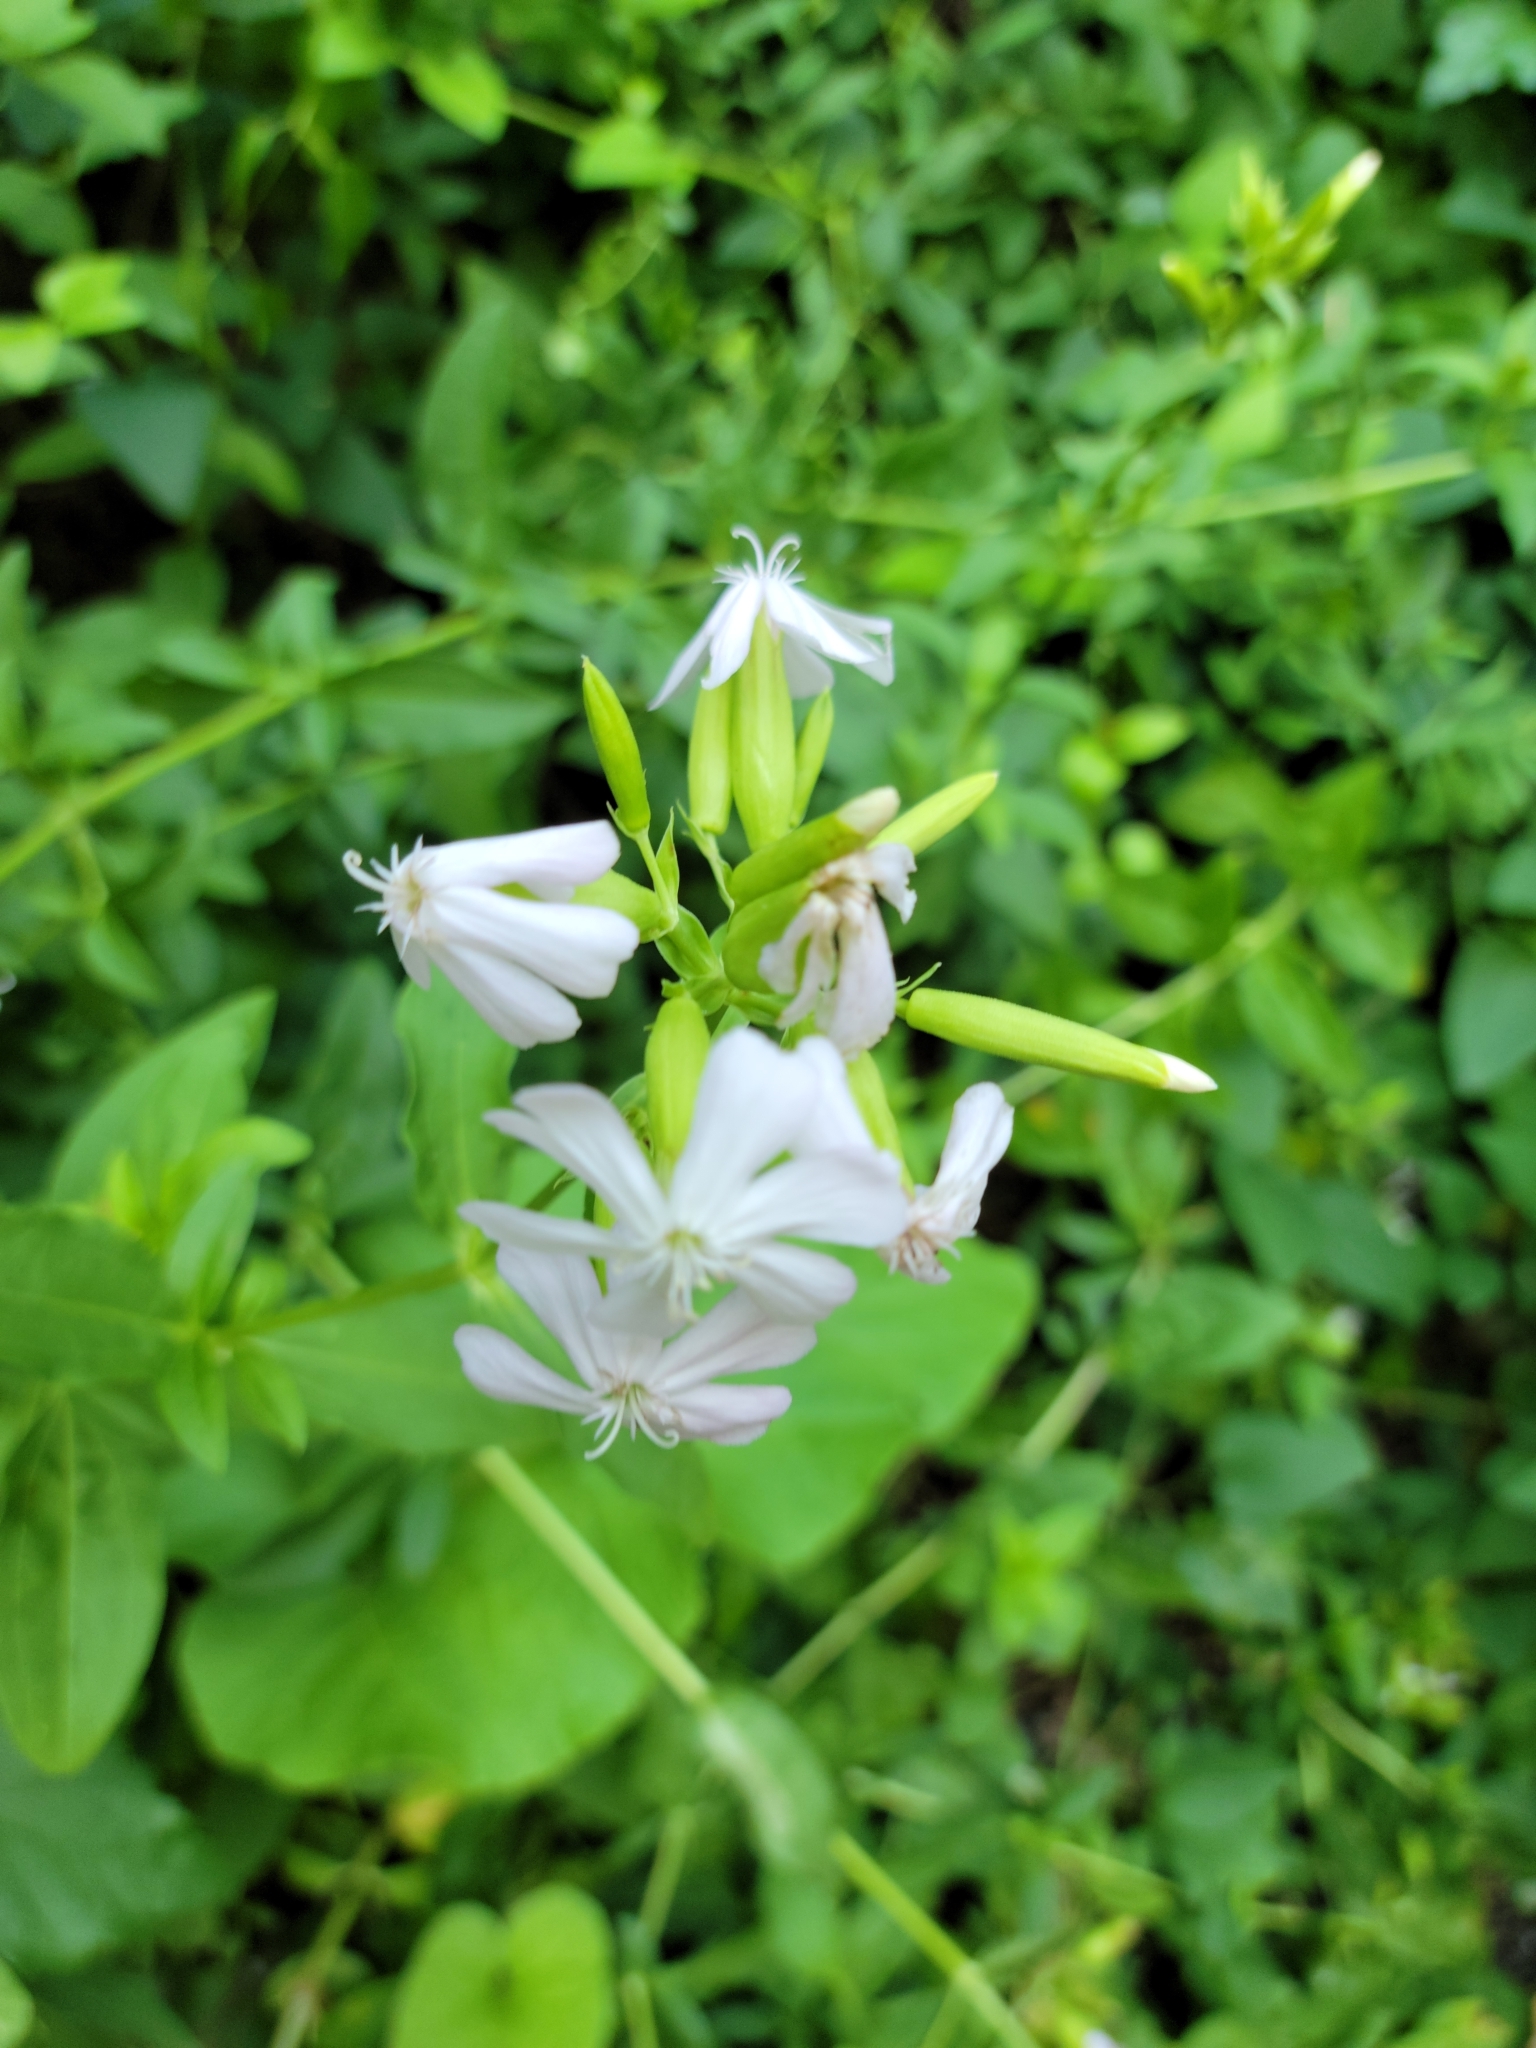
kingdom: Plantae
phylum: Tracheophyta
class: Magnoliopsida
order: Caryophyllales
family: Caryophyllaceae
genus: Saponaria
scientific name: Saponaria officinalis
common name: Soapwort
